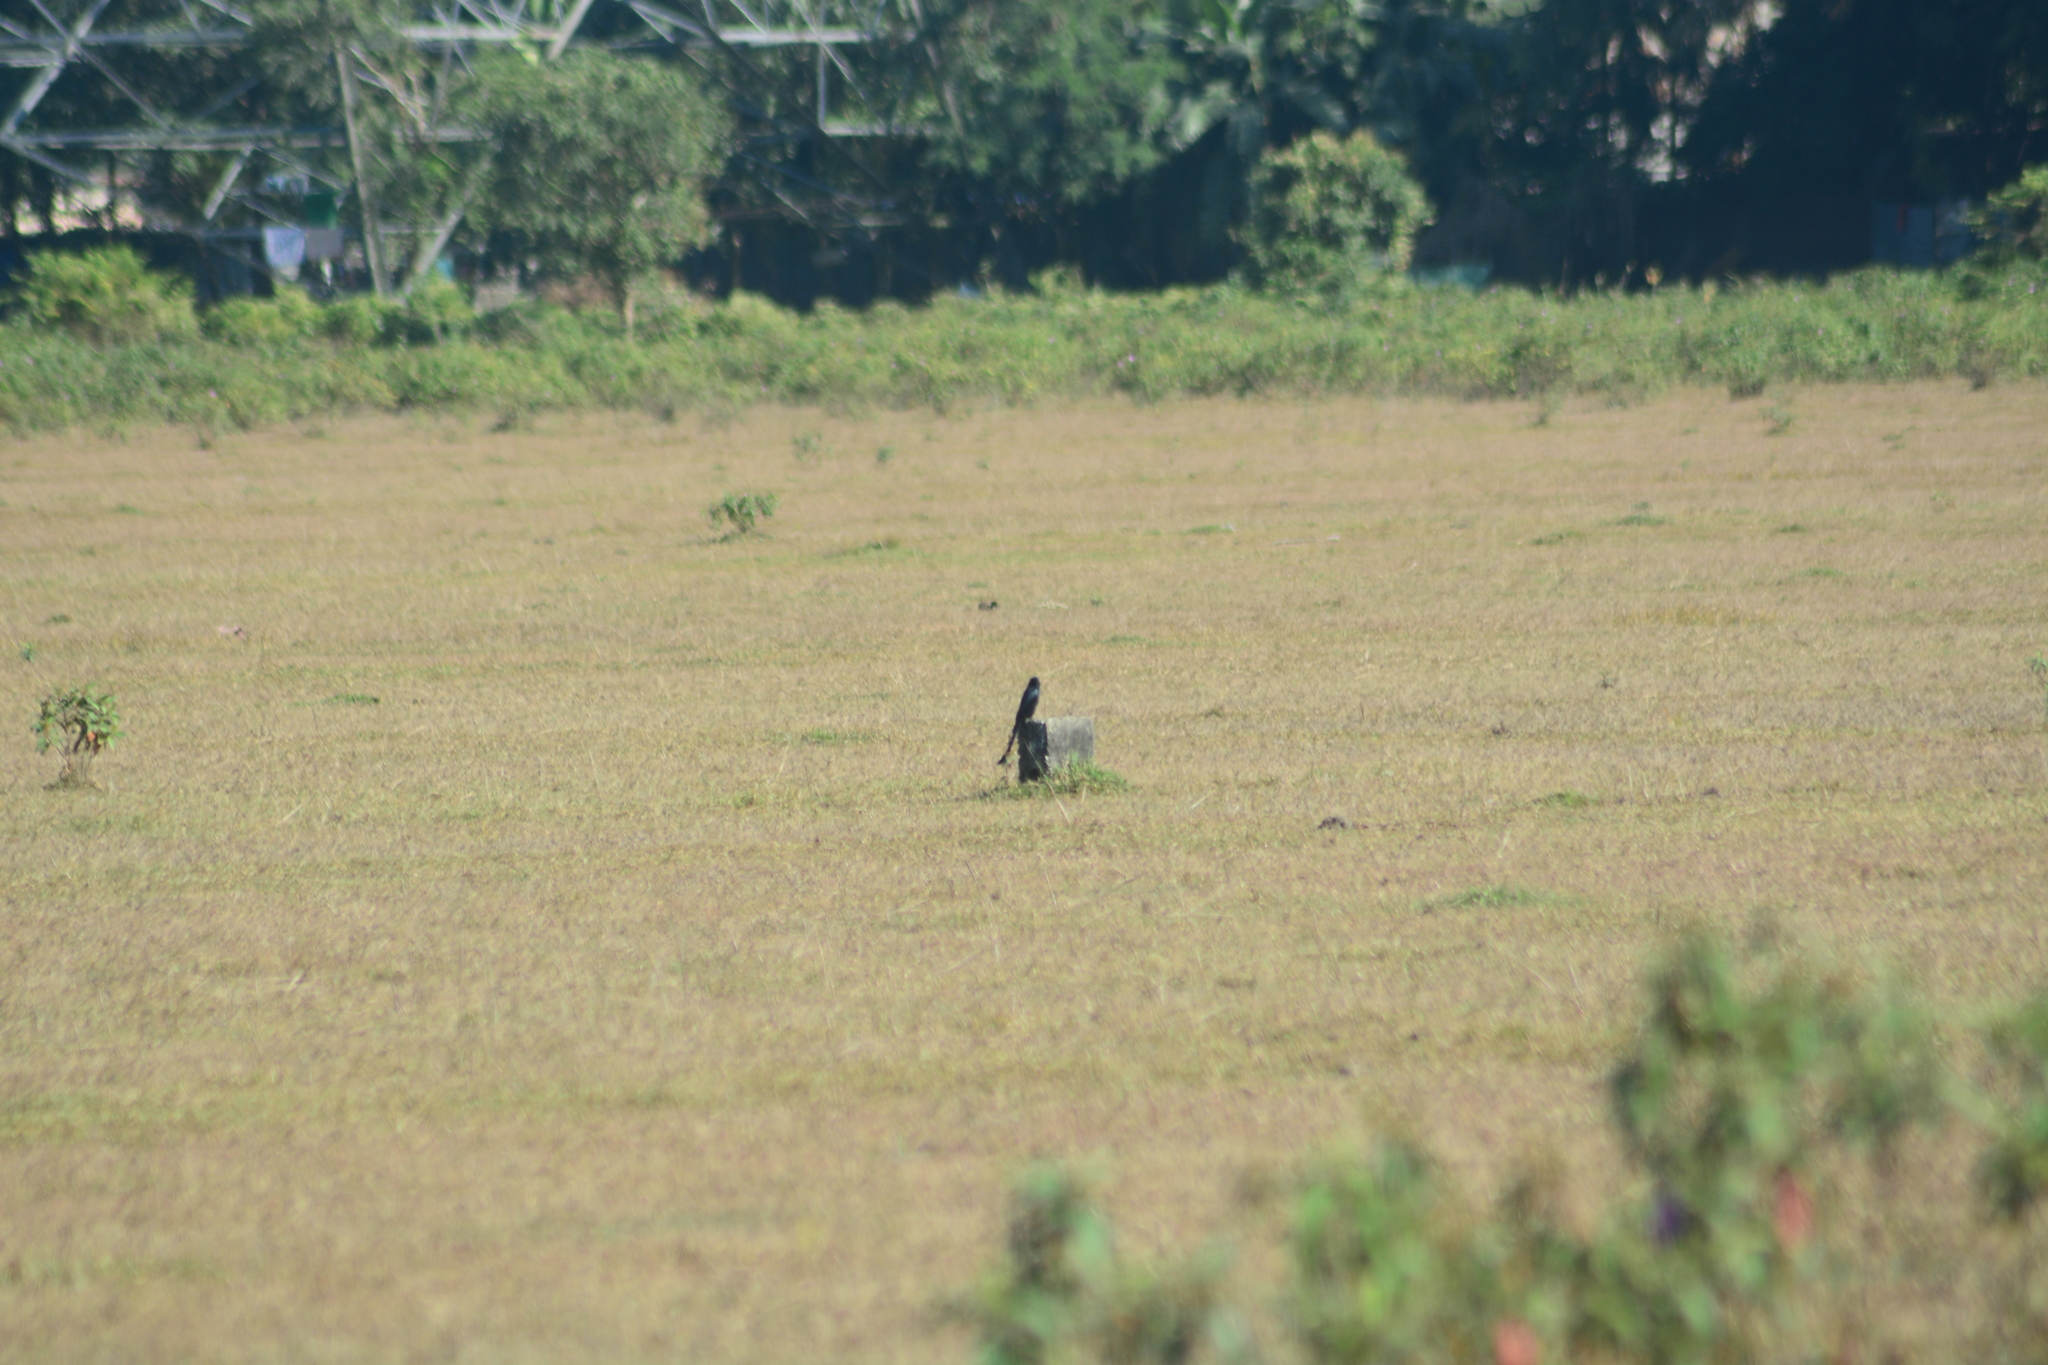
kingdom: Animalia
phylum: Chordata
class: Aves
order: Passeriformes
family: Dicruridae
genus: Dicrurus
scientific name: Dicrurus macrocercus
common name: Black drongo
